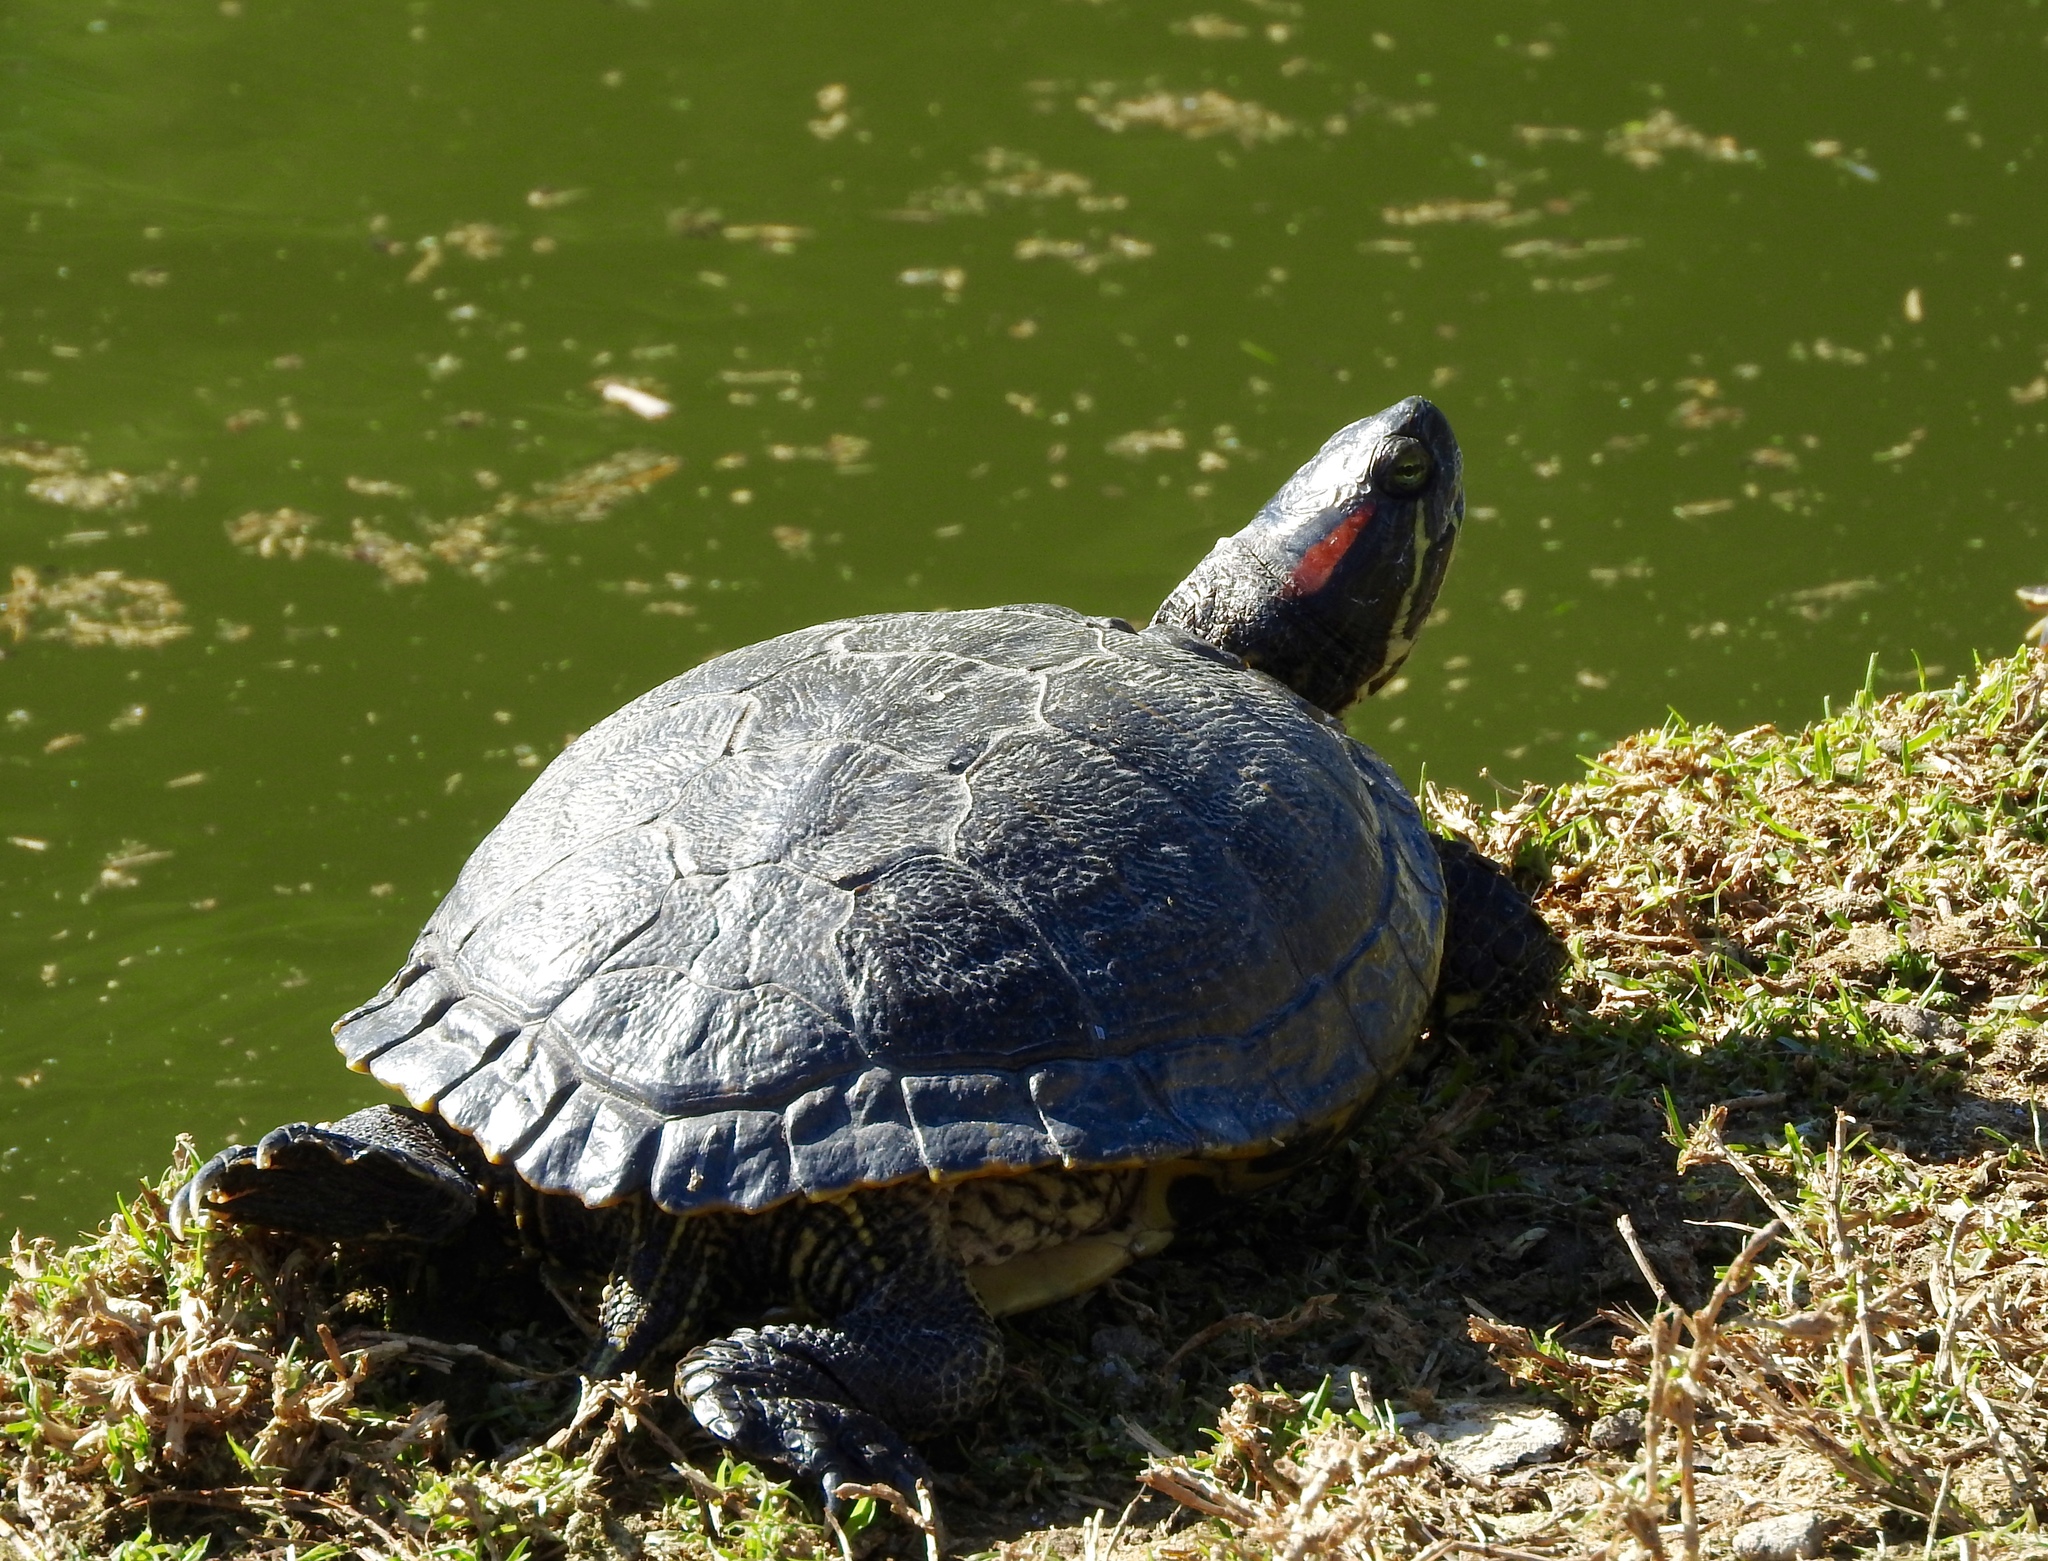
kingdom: Animalia
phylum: Chordata
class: Testudines
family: Emydidae
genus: Trachemys
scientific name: Trachemys scripta
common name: Slider
